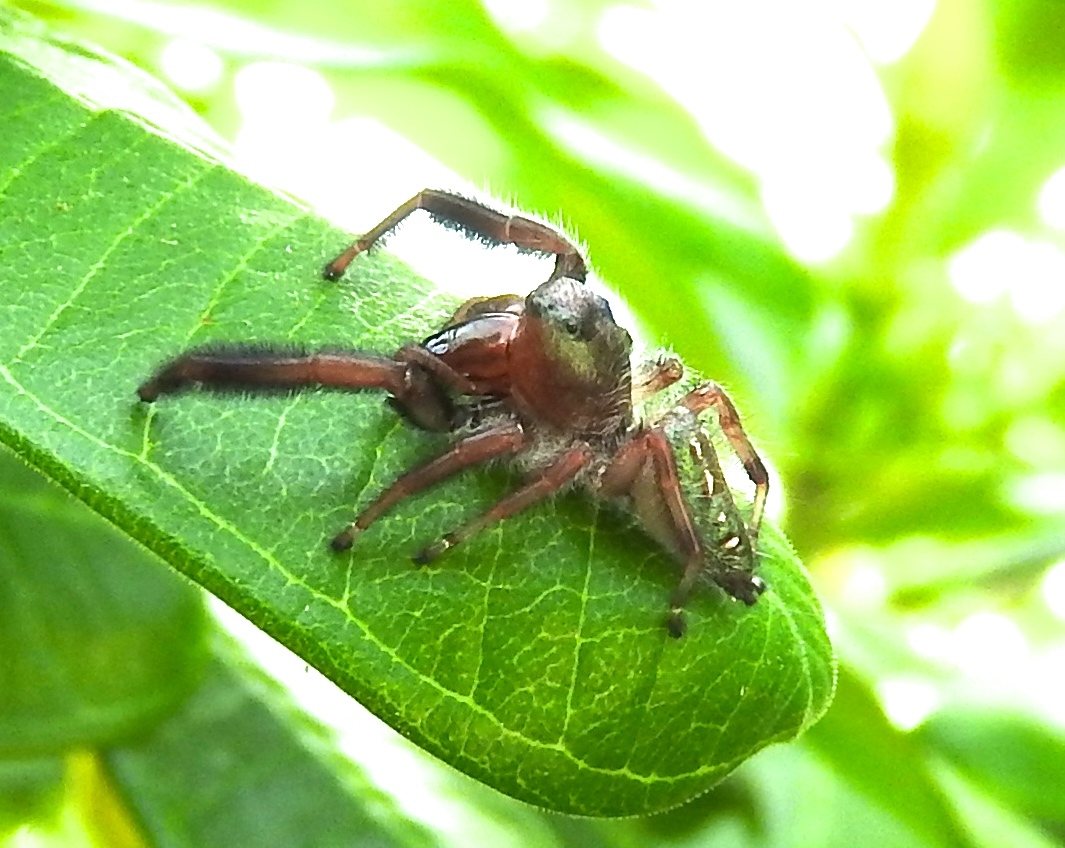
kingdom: Animalia
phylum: Arthropoda
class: Arachnida
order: Araneae
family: Salticidae
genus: Paraphidippus
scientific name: Paraphidippus fartilis
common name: Jumping spiders
